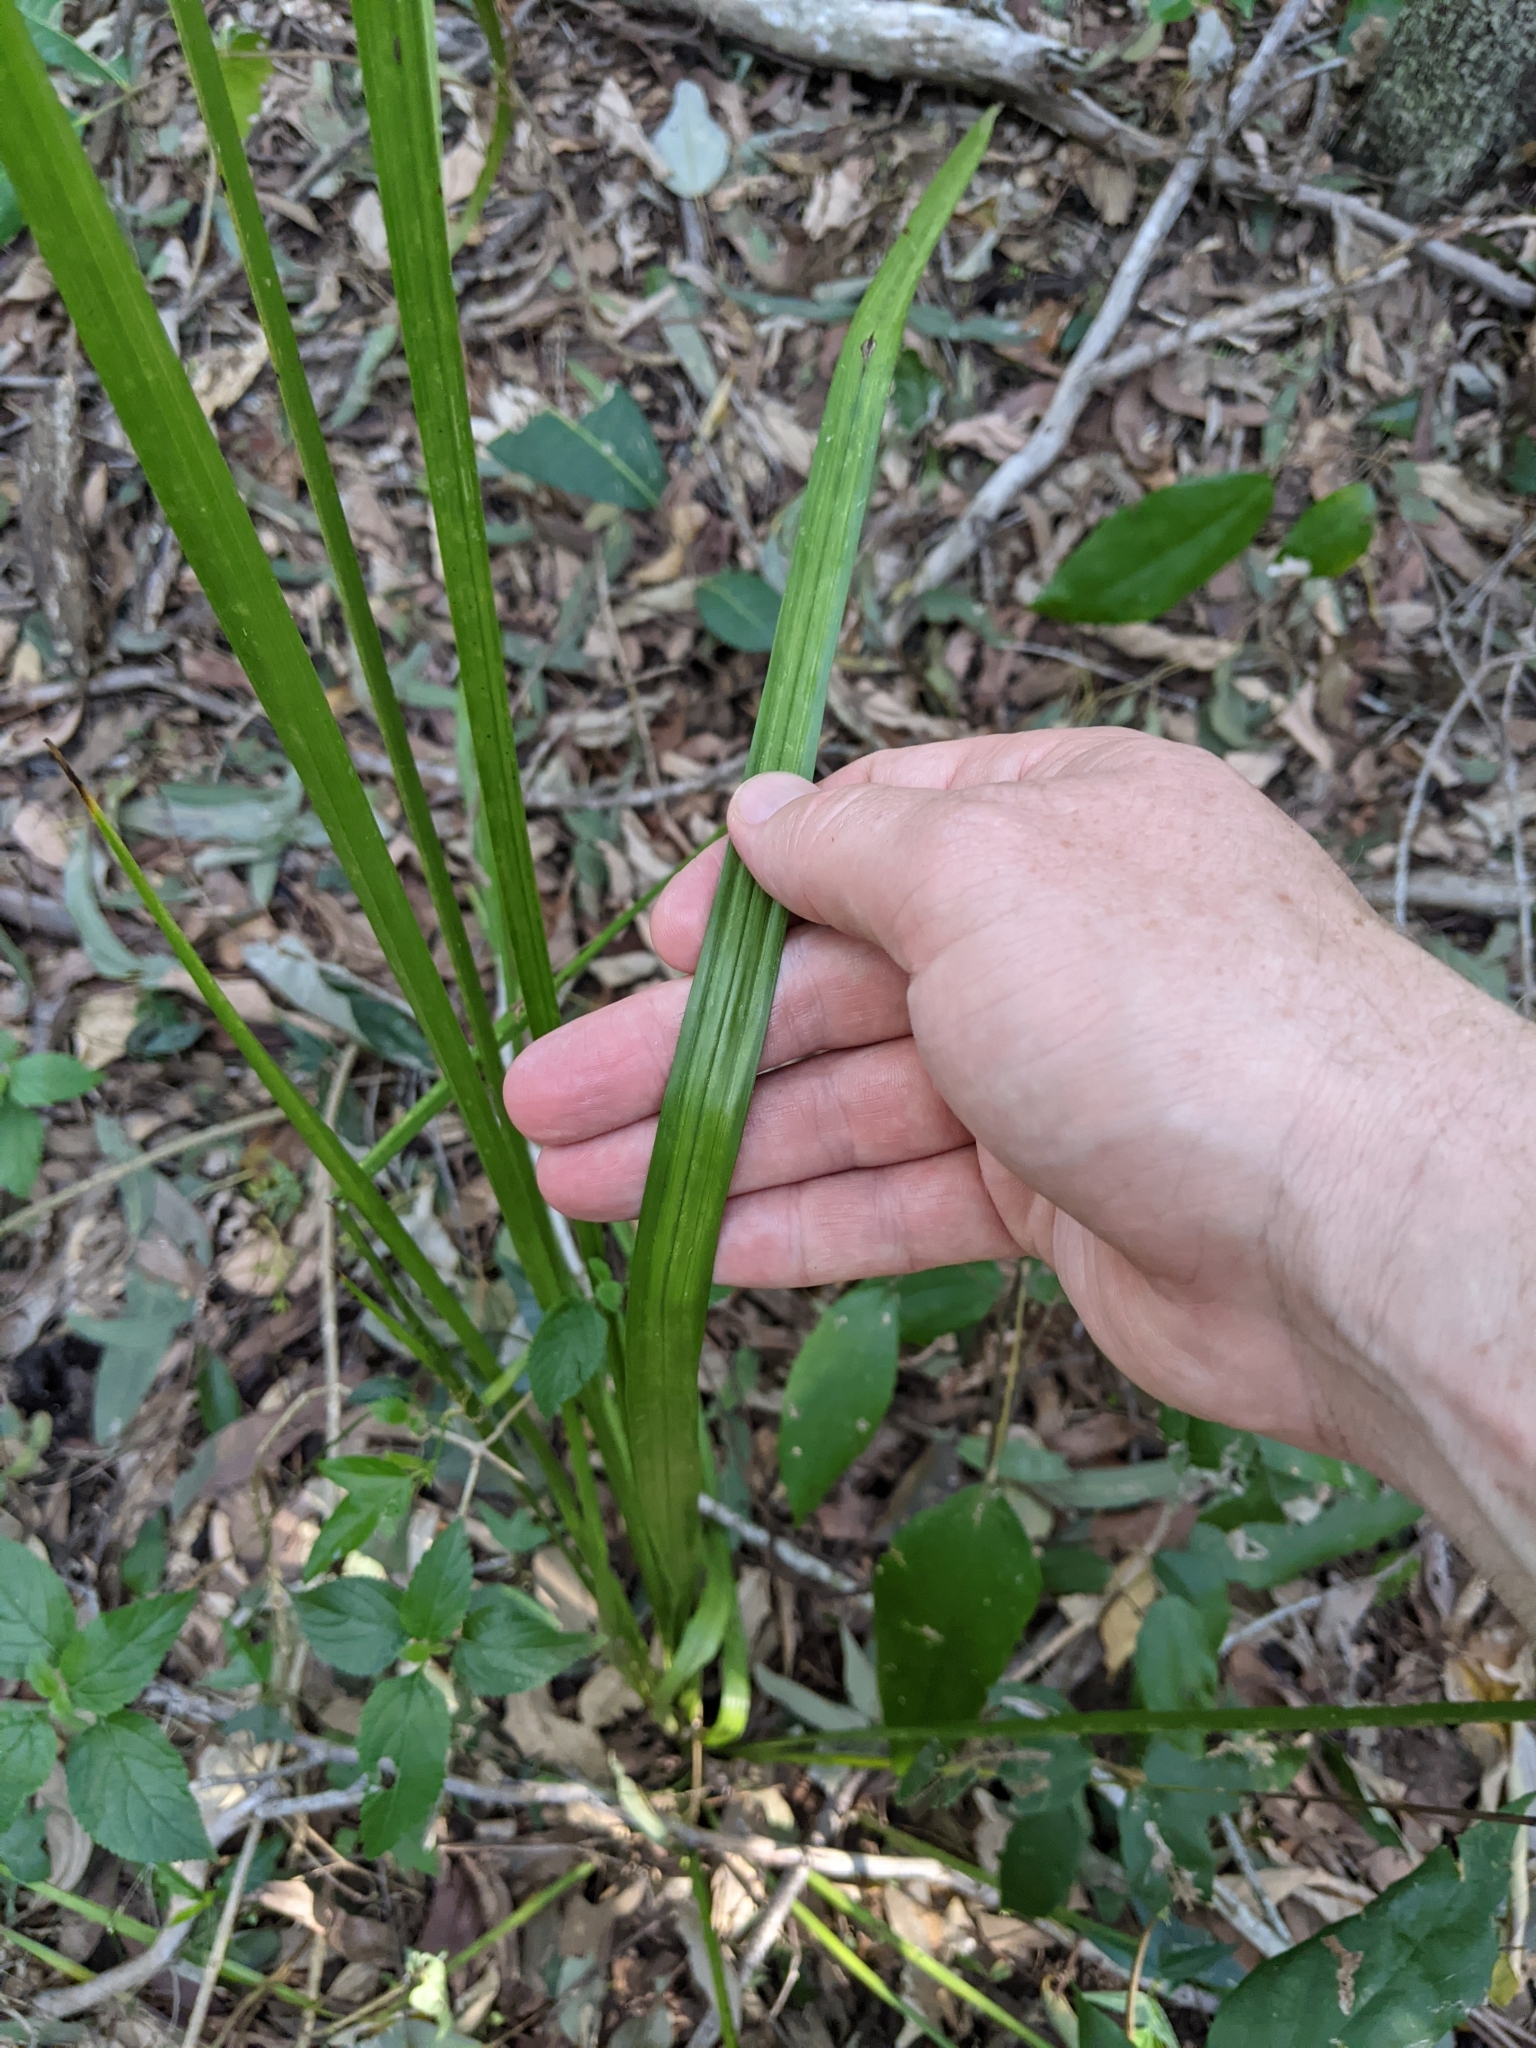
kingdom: Plantae
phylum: Tracheophyta
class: Liliopsida
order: Alismatales
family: Araceae
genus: Gymnostachys
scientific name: Gymnostachys anceps
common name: Settler's-flax
